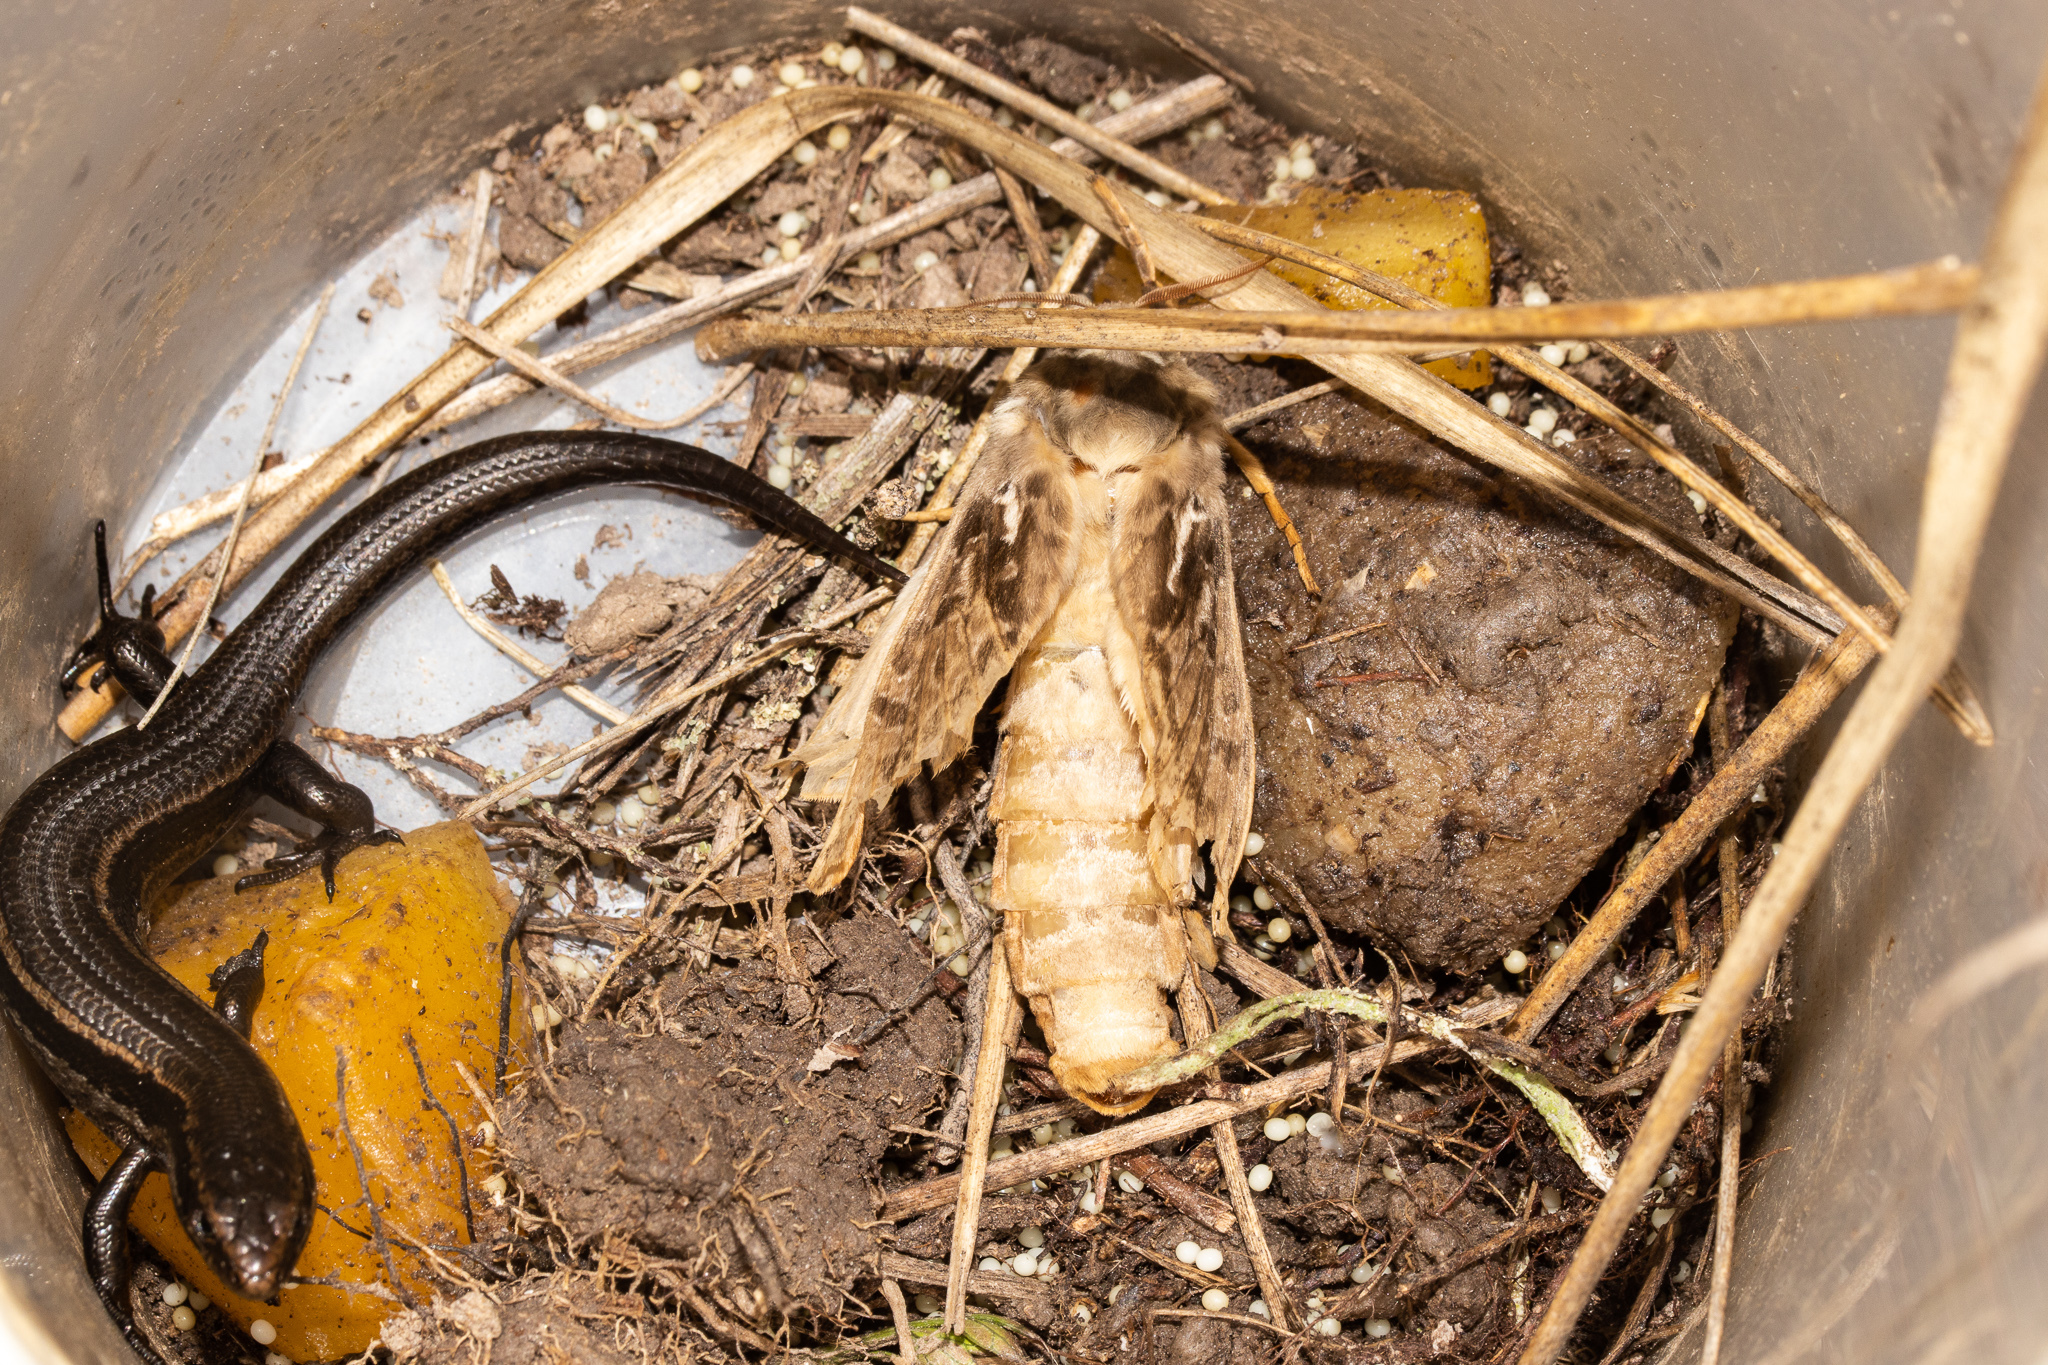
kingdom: Animalia
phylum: Arthropoda
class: Insecta
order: Lepidoptera
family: Hepialidae
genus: Aoraia
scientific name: Aoraia rufivena
